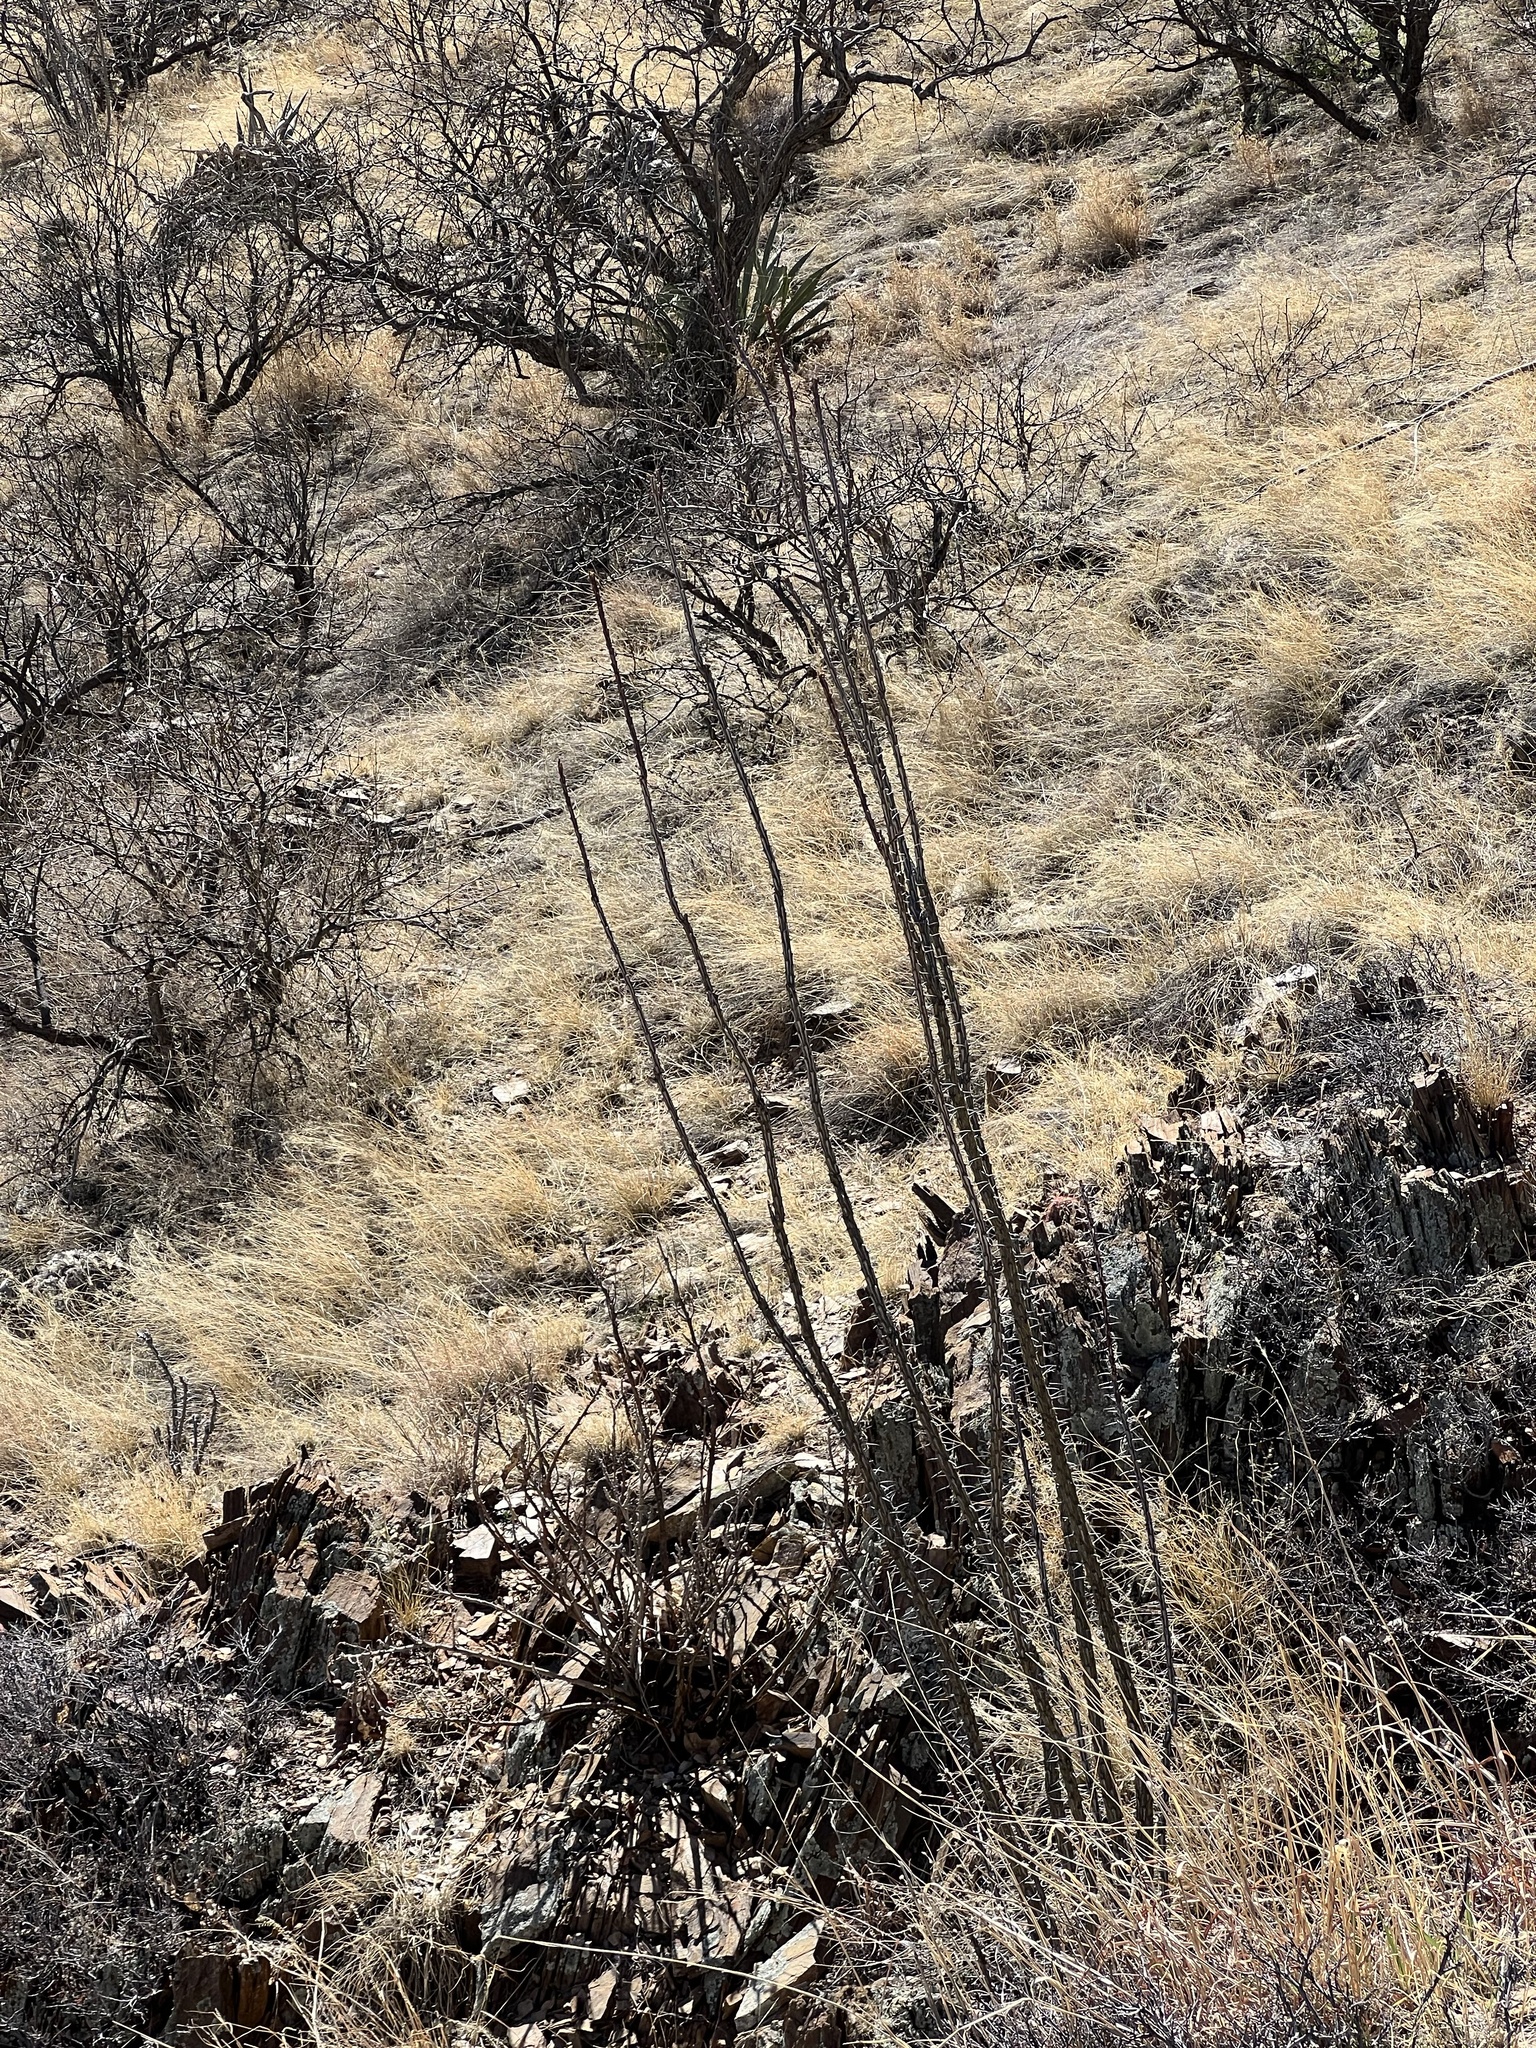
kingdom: Plantae
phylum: Tracheophyta
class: Magnoliopsida
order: Ericales
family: Fouquieriaceae
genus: Fouquieria
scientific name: Fouquieria splendens
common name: Vine-cactus
